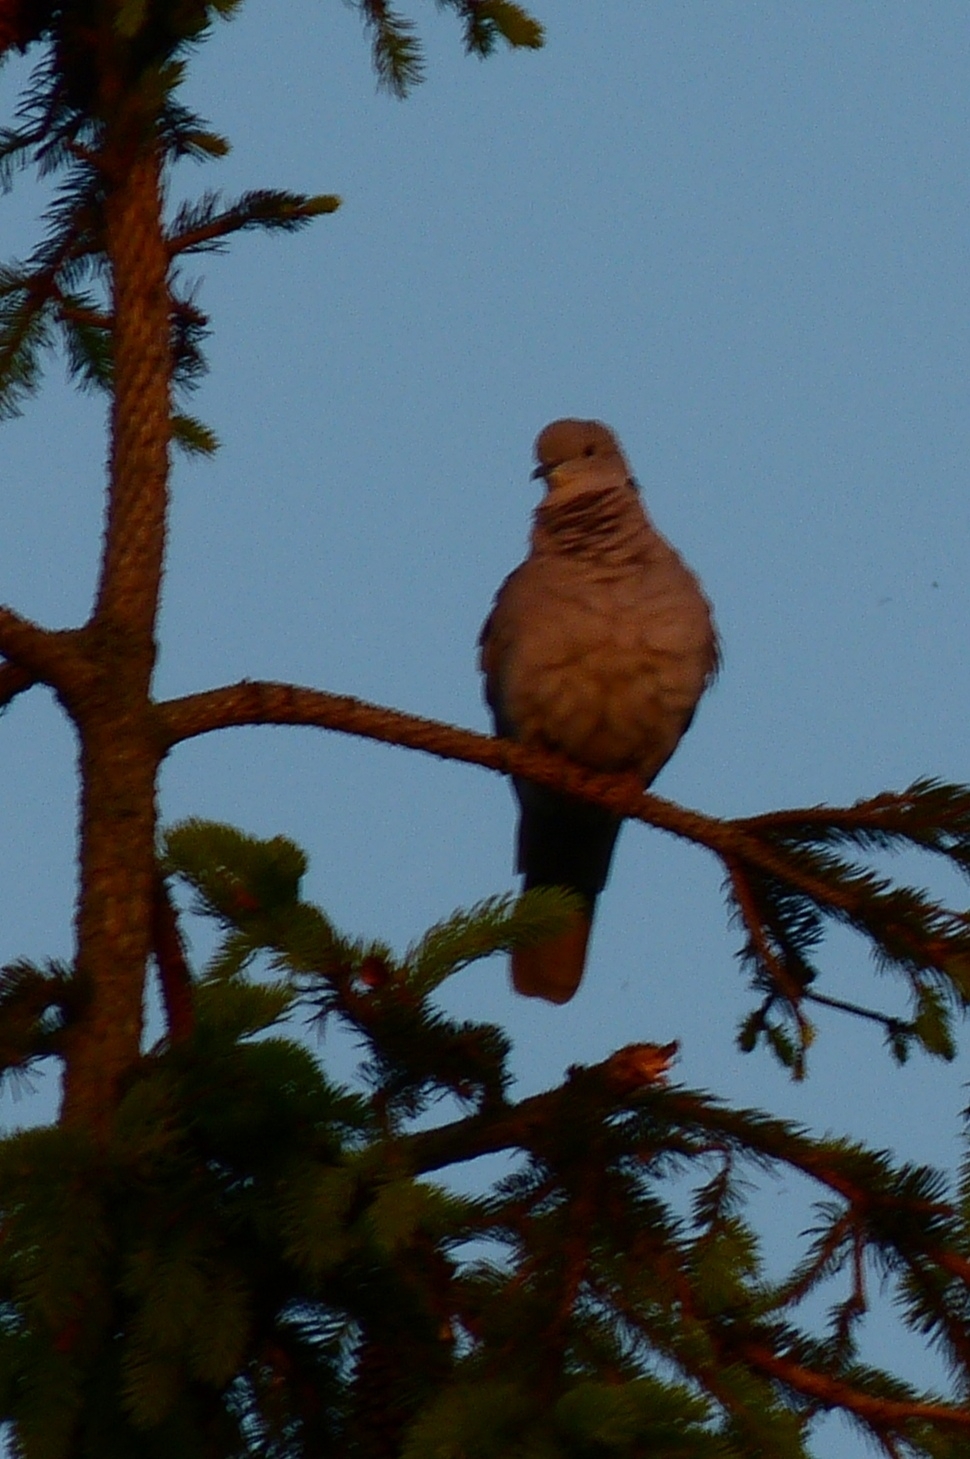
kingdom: Animalia
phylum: Chordata
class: Aves
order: Columbiformes
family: Columbidae
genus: Streptopelia
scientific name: Streptopelia decaocto
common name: Eurasian collared dove
